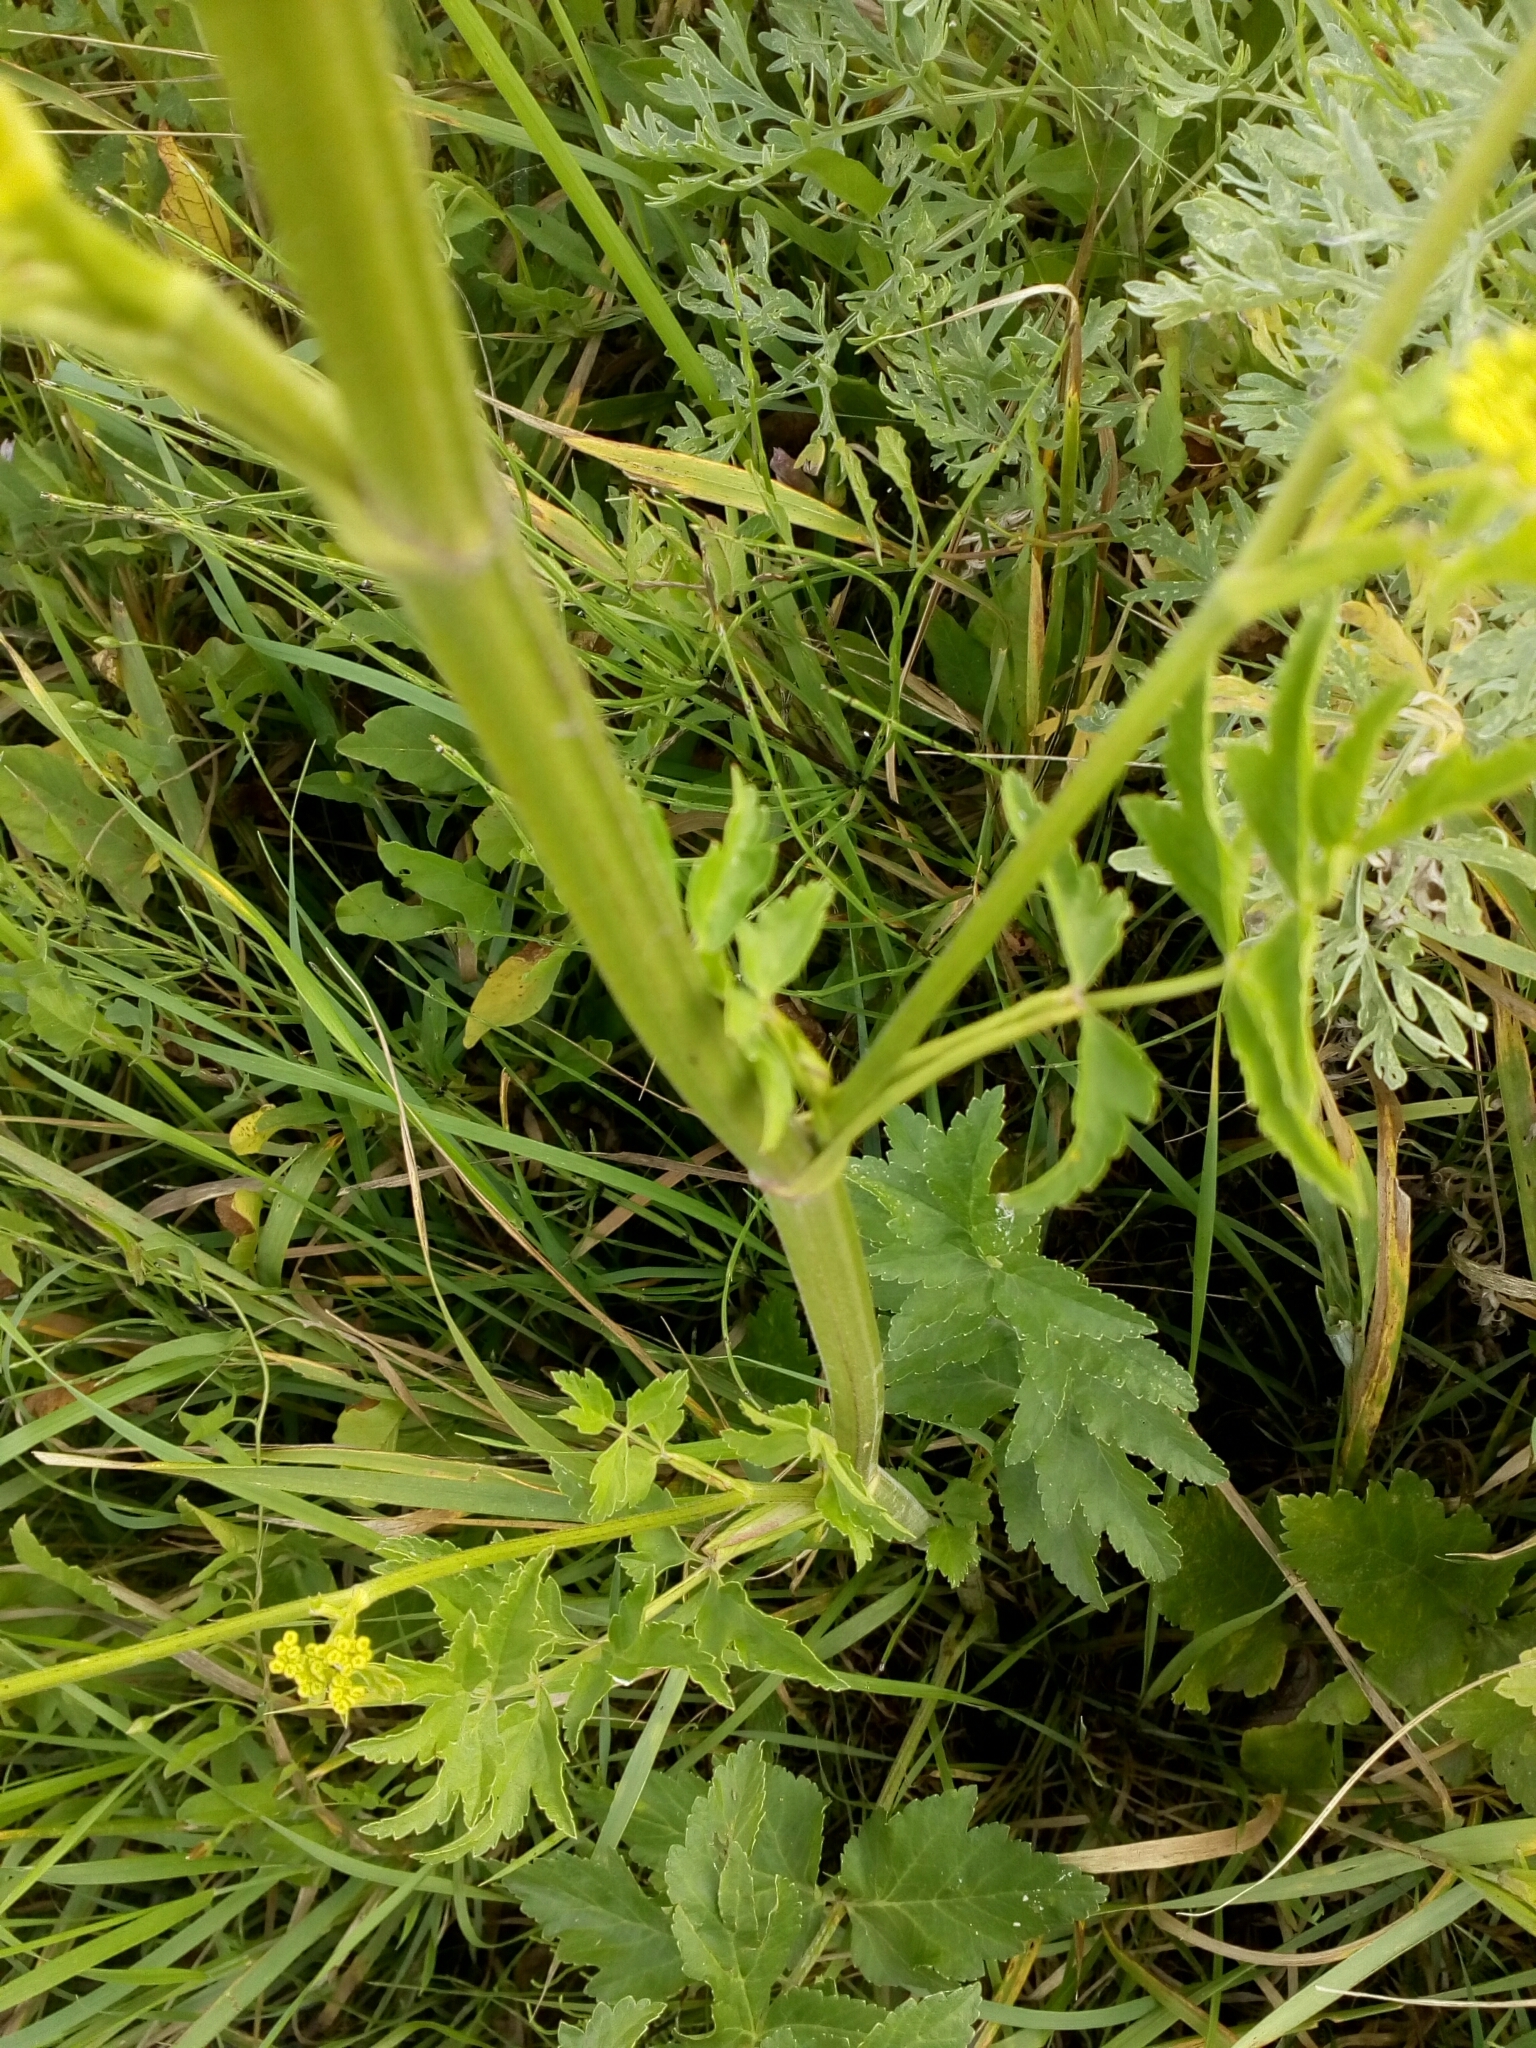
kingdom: Plantae
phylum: Tracheophyta
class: Magnoliopsida
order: Apiales
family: Apiaceae
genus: Pastinaca
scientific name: Pastinaca sativa
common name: Wild parsnip
